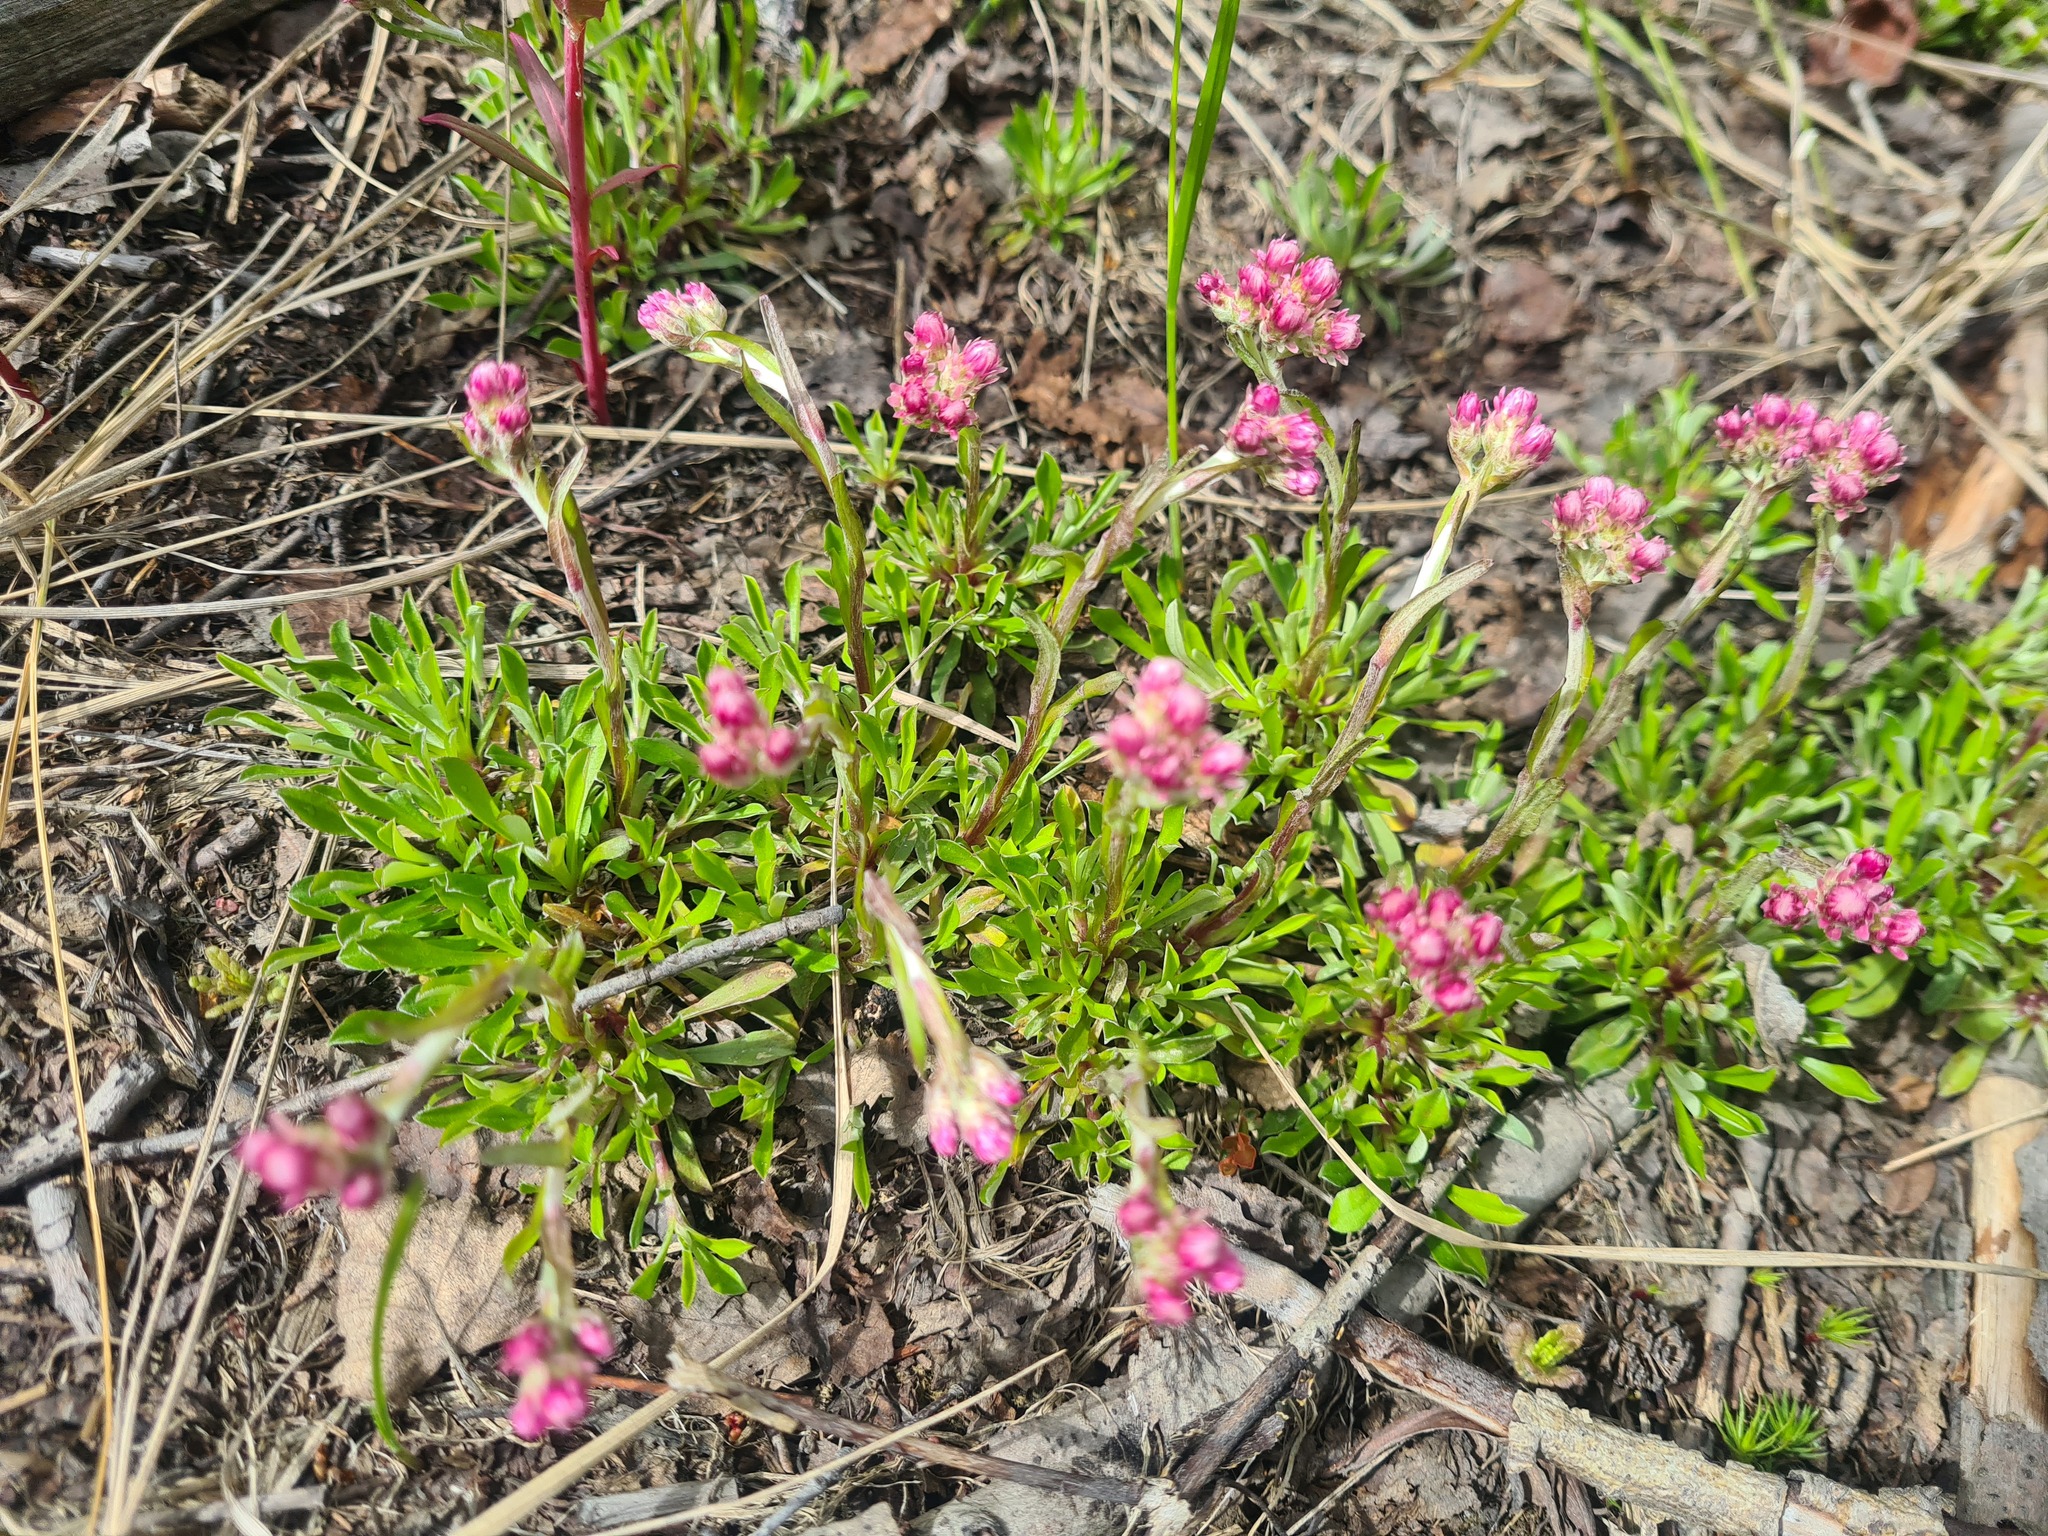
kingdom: Plantae
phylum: Tracheophyta
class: Magnoliopsida
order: Asterales
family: Asteraceae
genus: Antennaria
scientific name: Antennaria dioica
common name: Mountain everlasting
